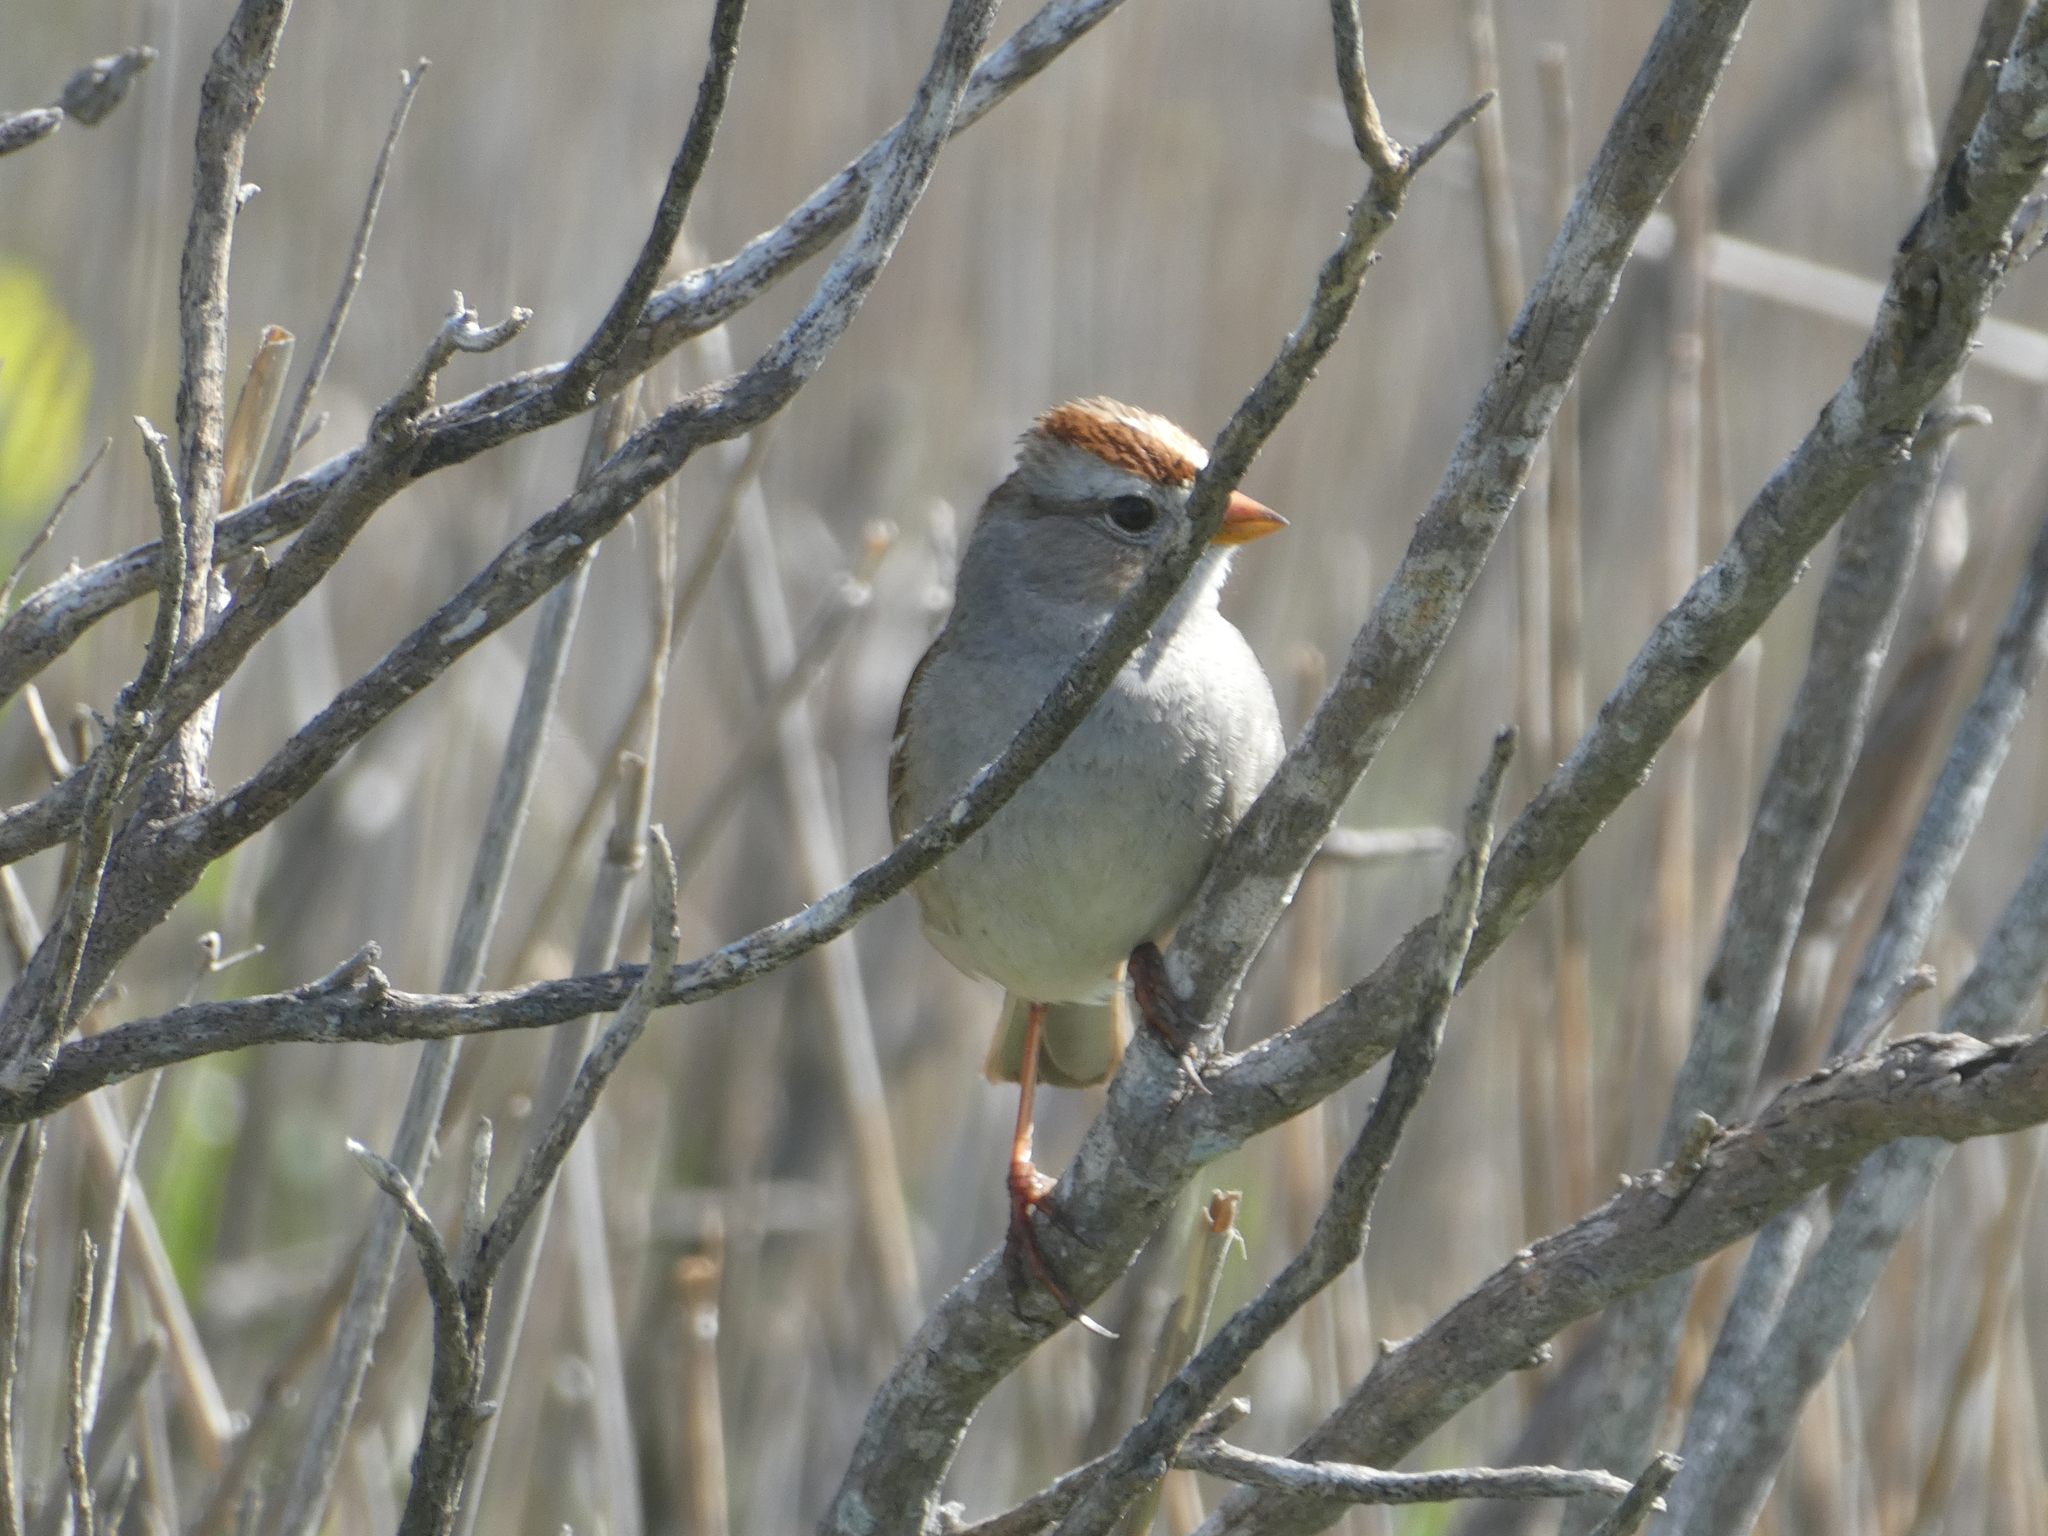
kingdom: Animalia
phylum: Chordata
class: Aves
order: Passeriformes
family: Passerellidae
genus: Zonotrichia
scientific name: Zonotrichia leucophrys
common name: White-crowned sparrow
